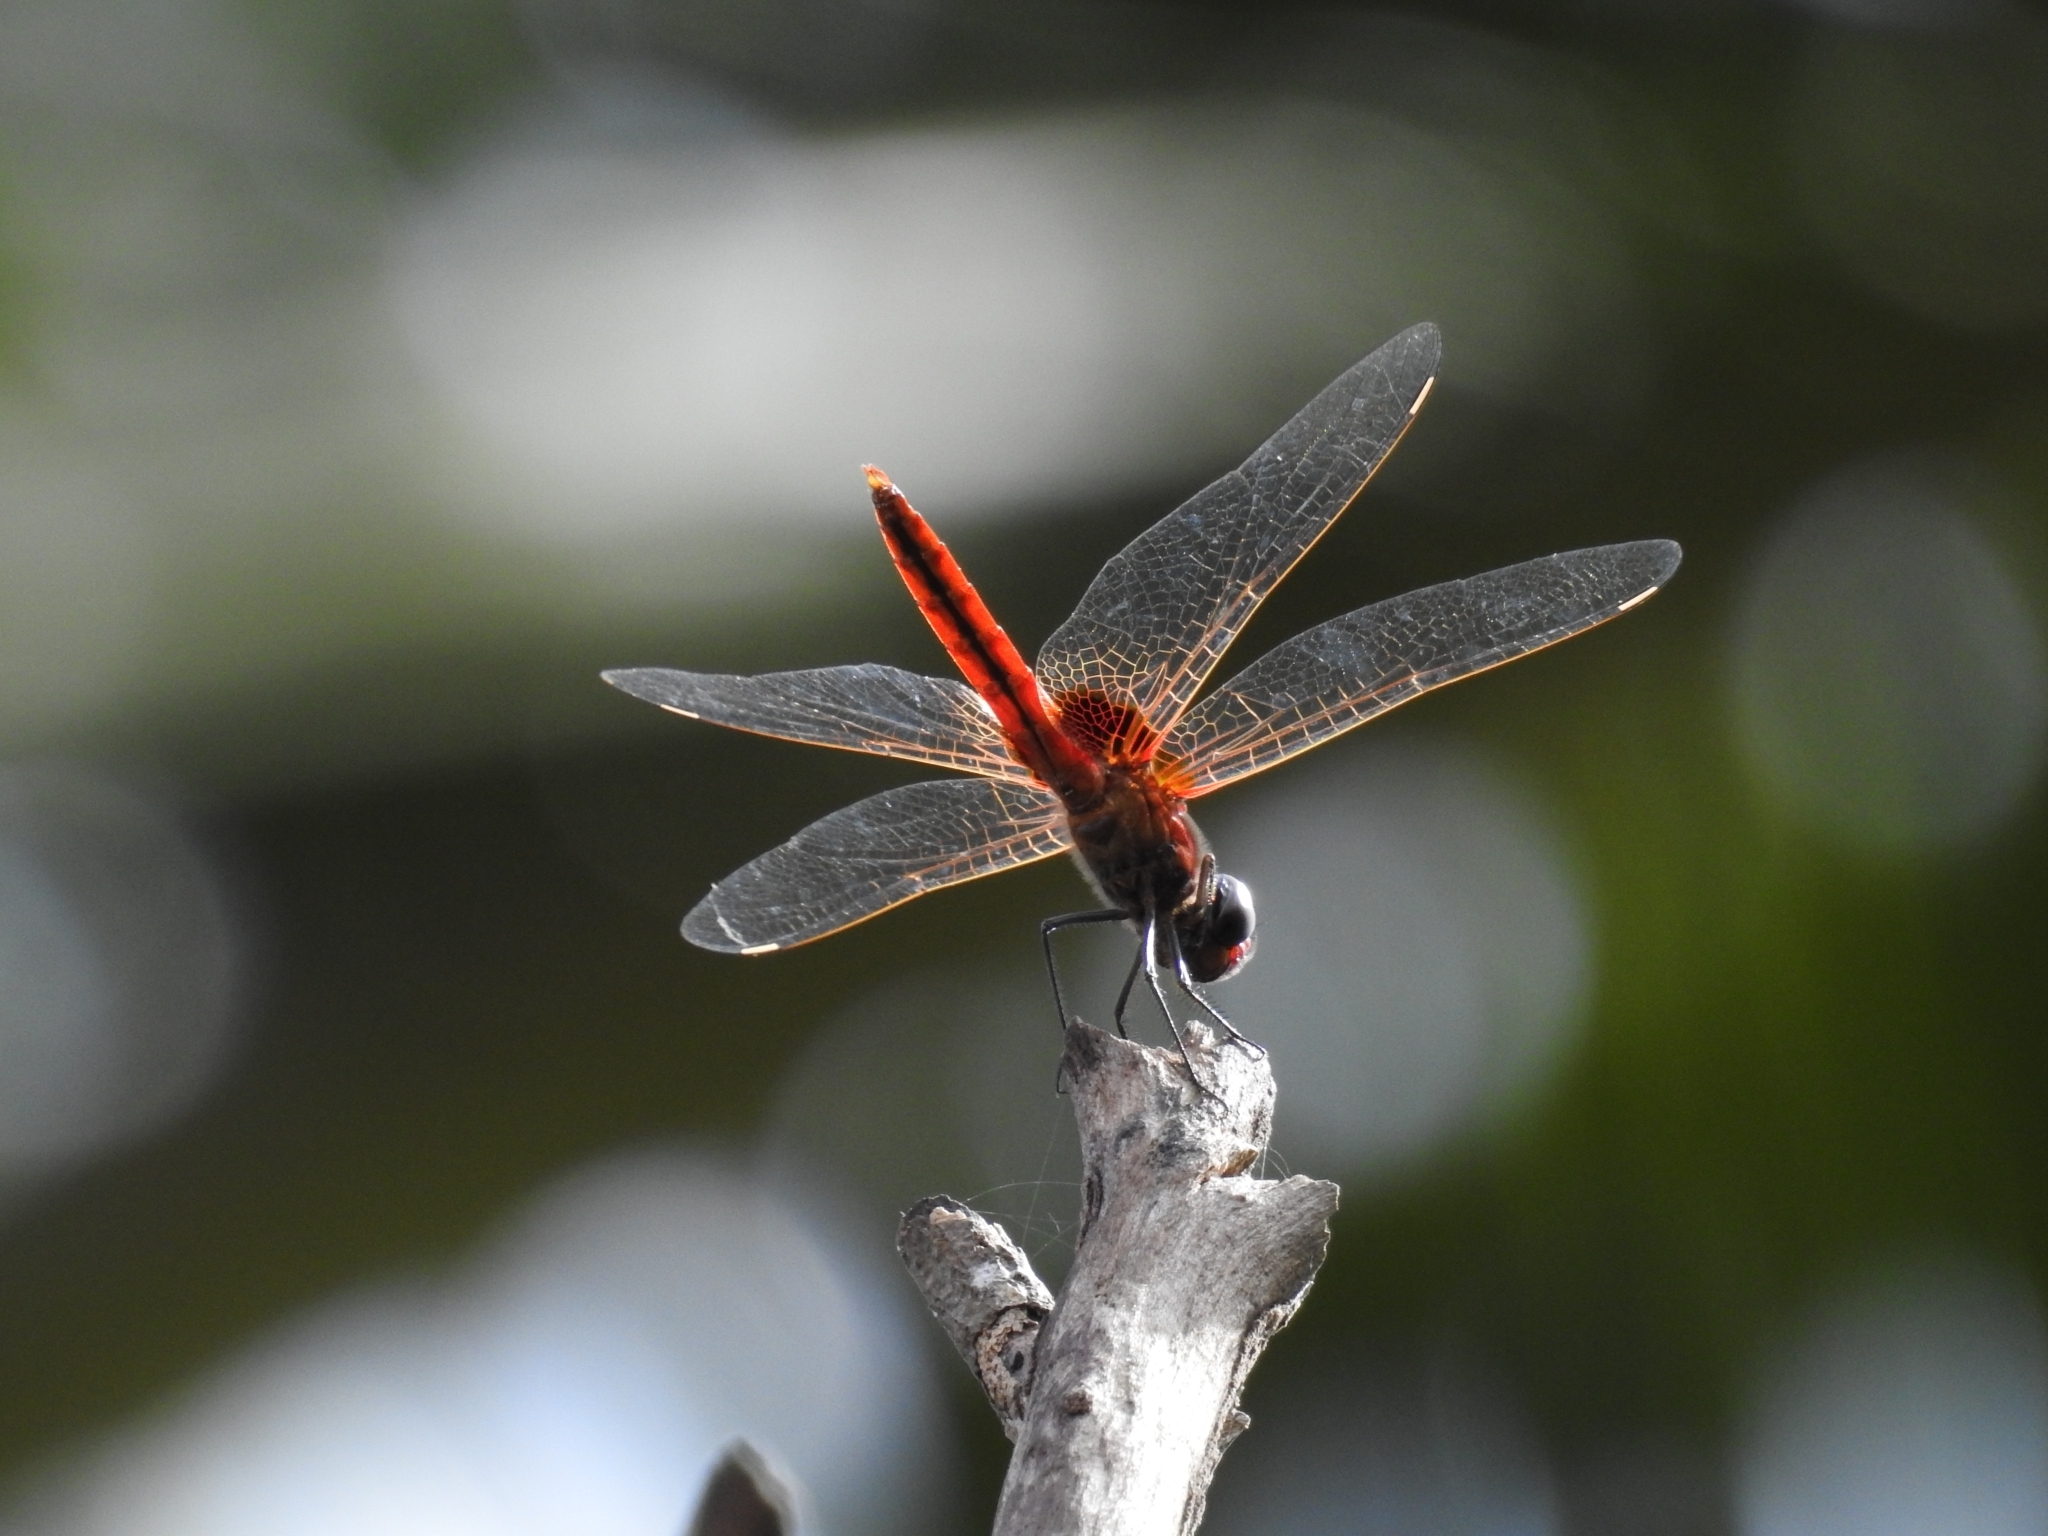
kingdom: Animalia
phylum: Arthropoda
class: Insecta
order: Odonata
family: Libellulidae
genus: Urothemis
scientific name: Urothemis signata
